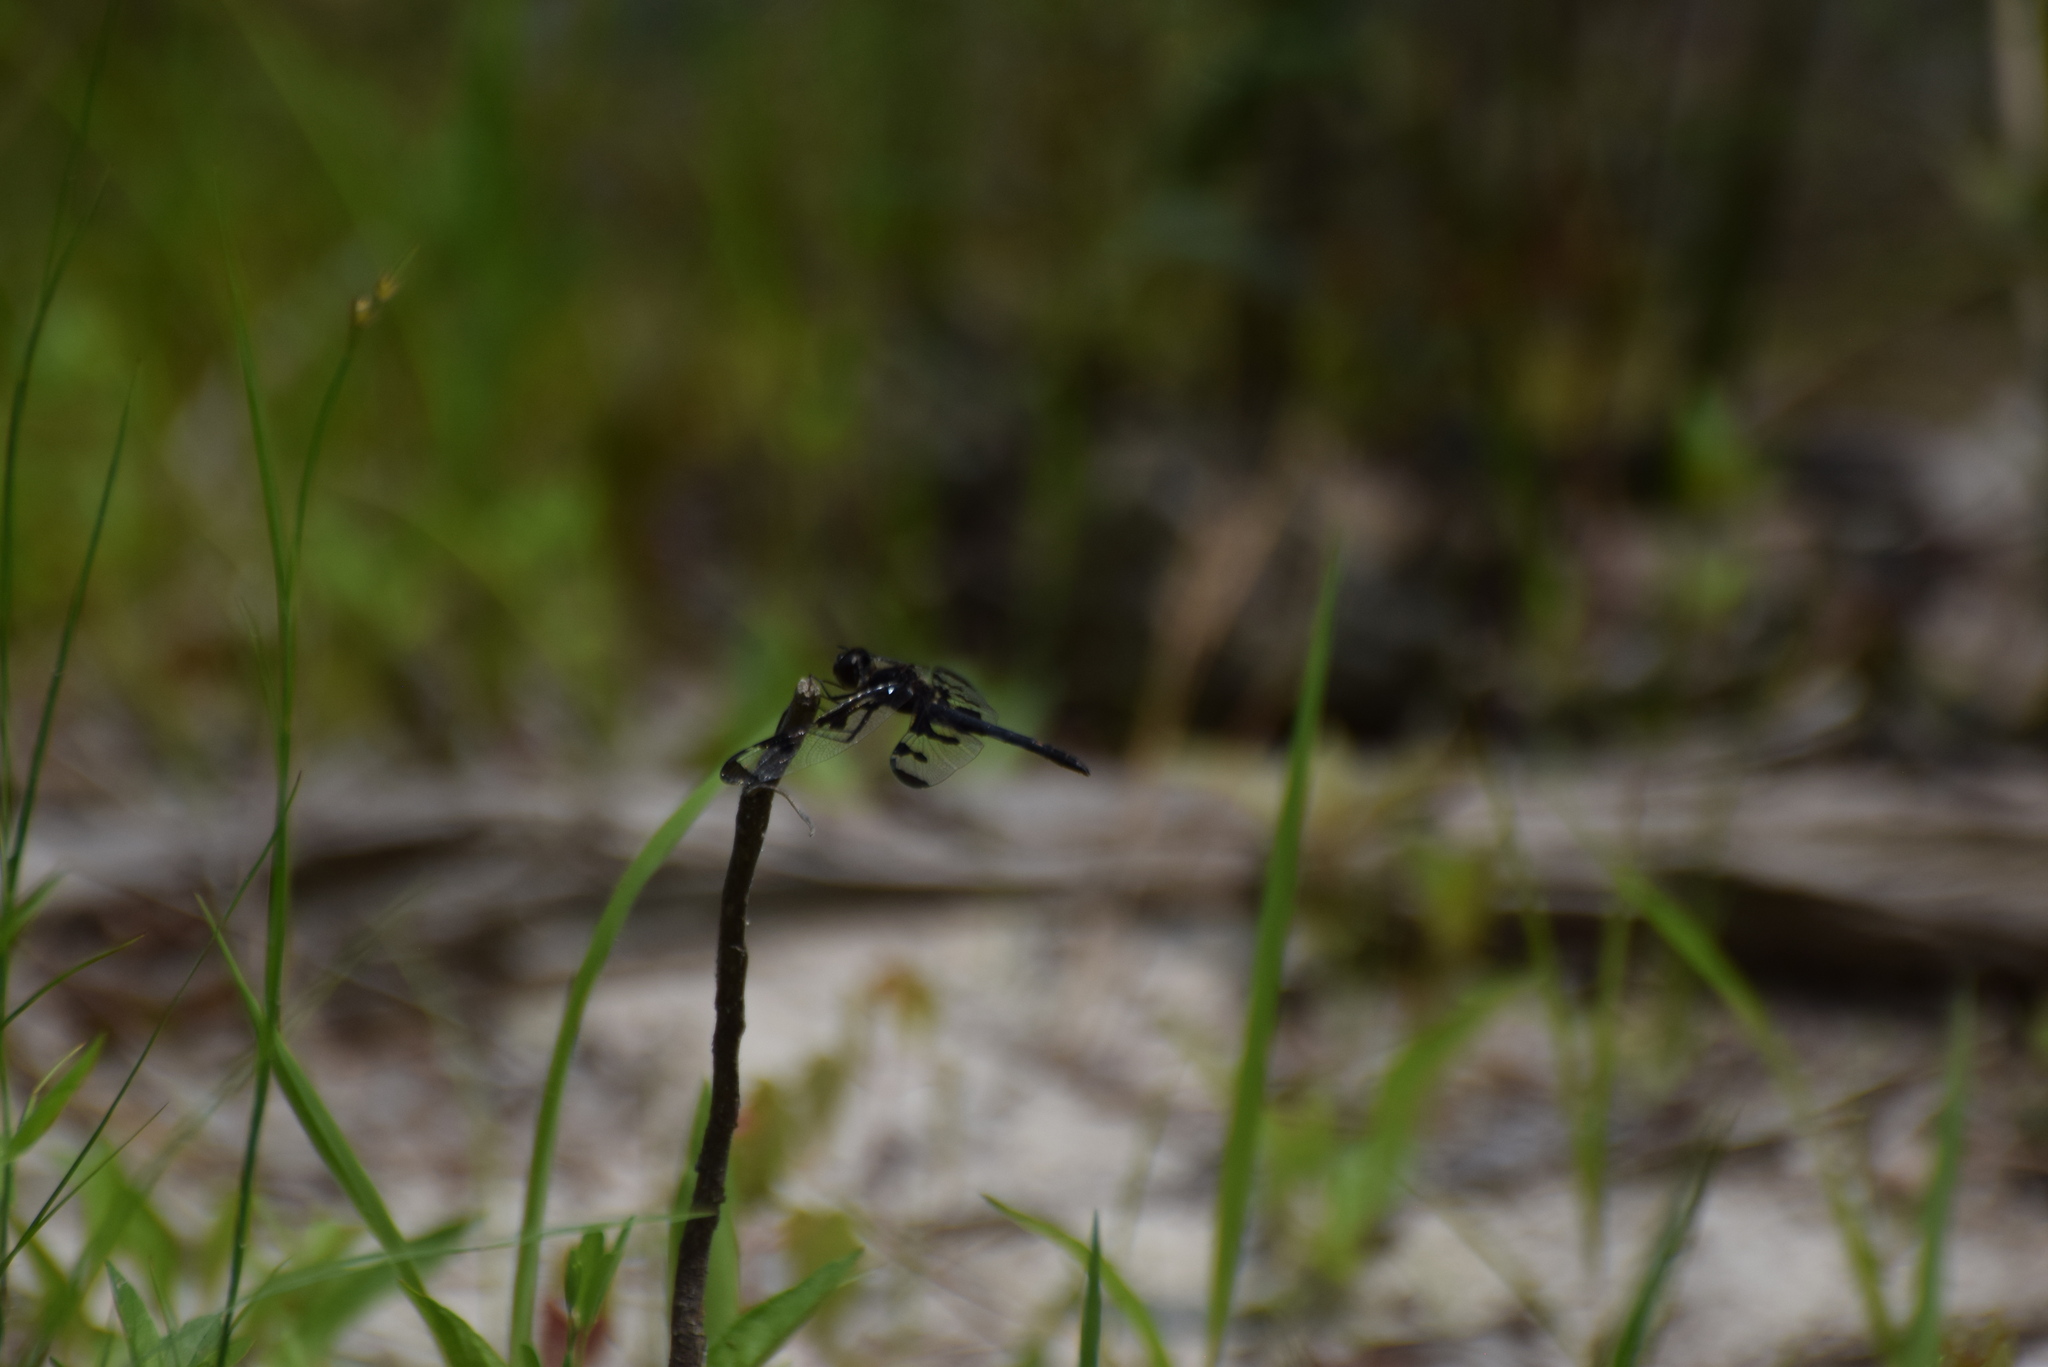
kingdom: Animalia
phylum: Arthropoda
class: Insecta
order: Odonata
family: Libellulidae
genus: Celithemis
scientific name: Celithemis fasciata
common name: Banded pennant
